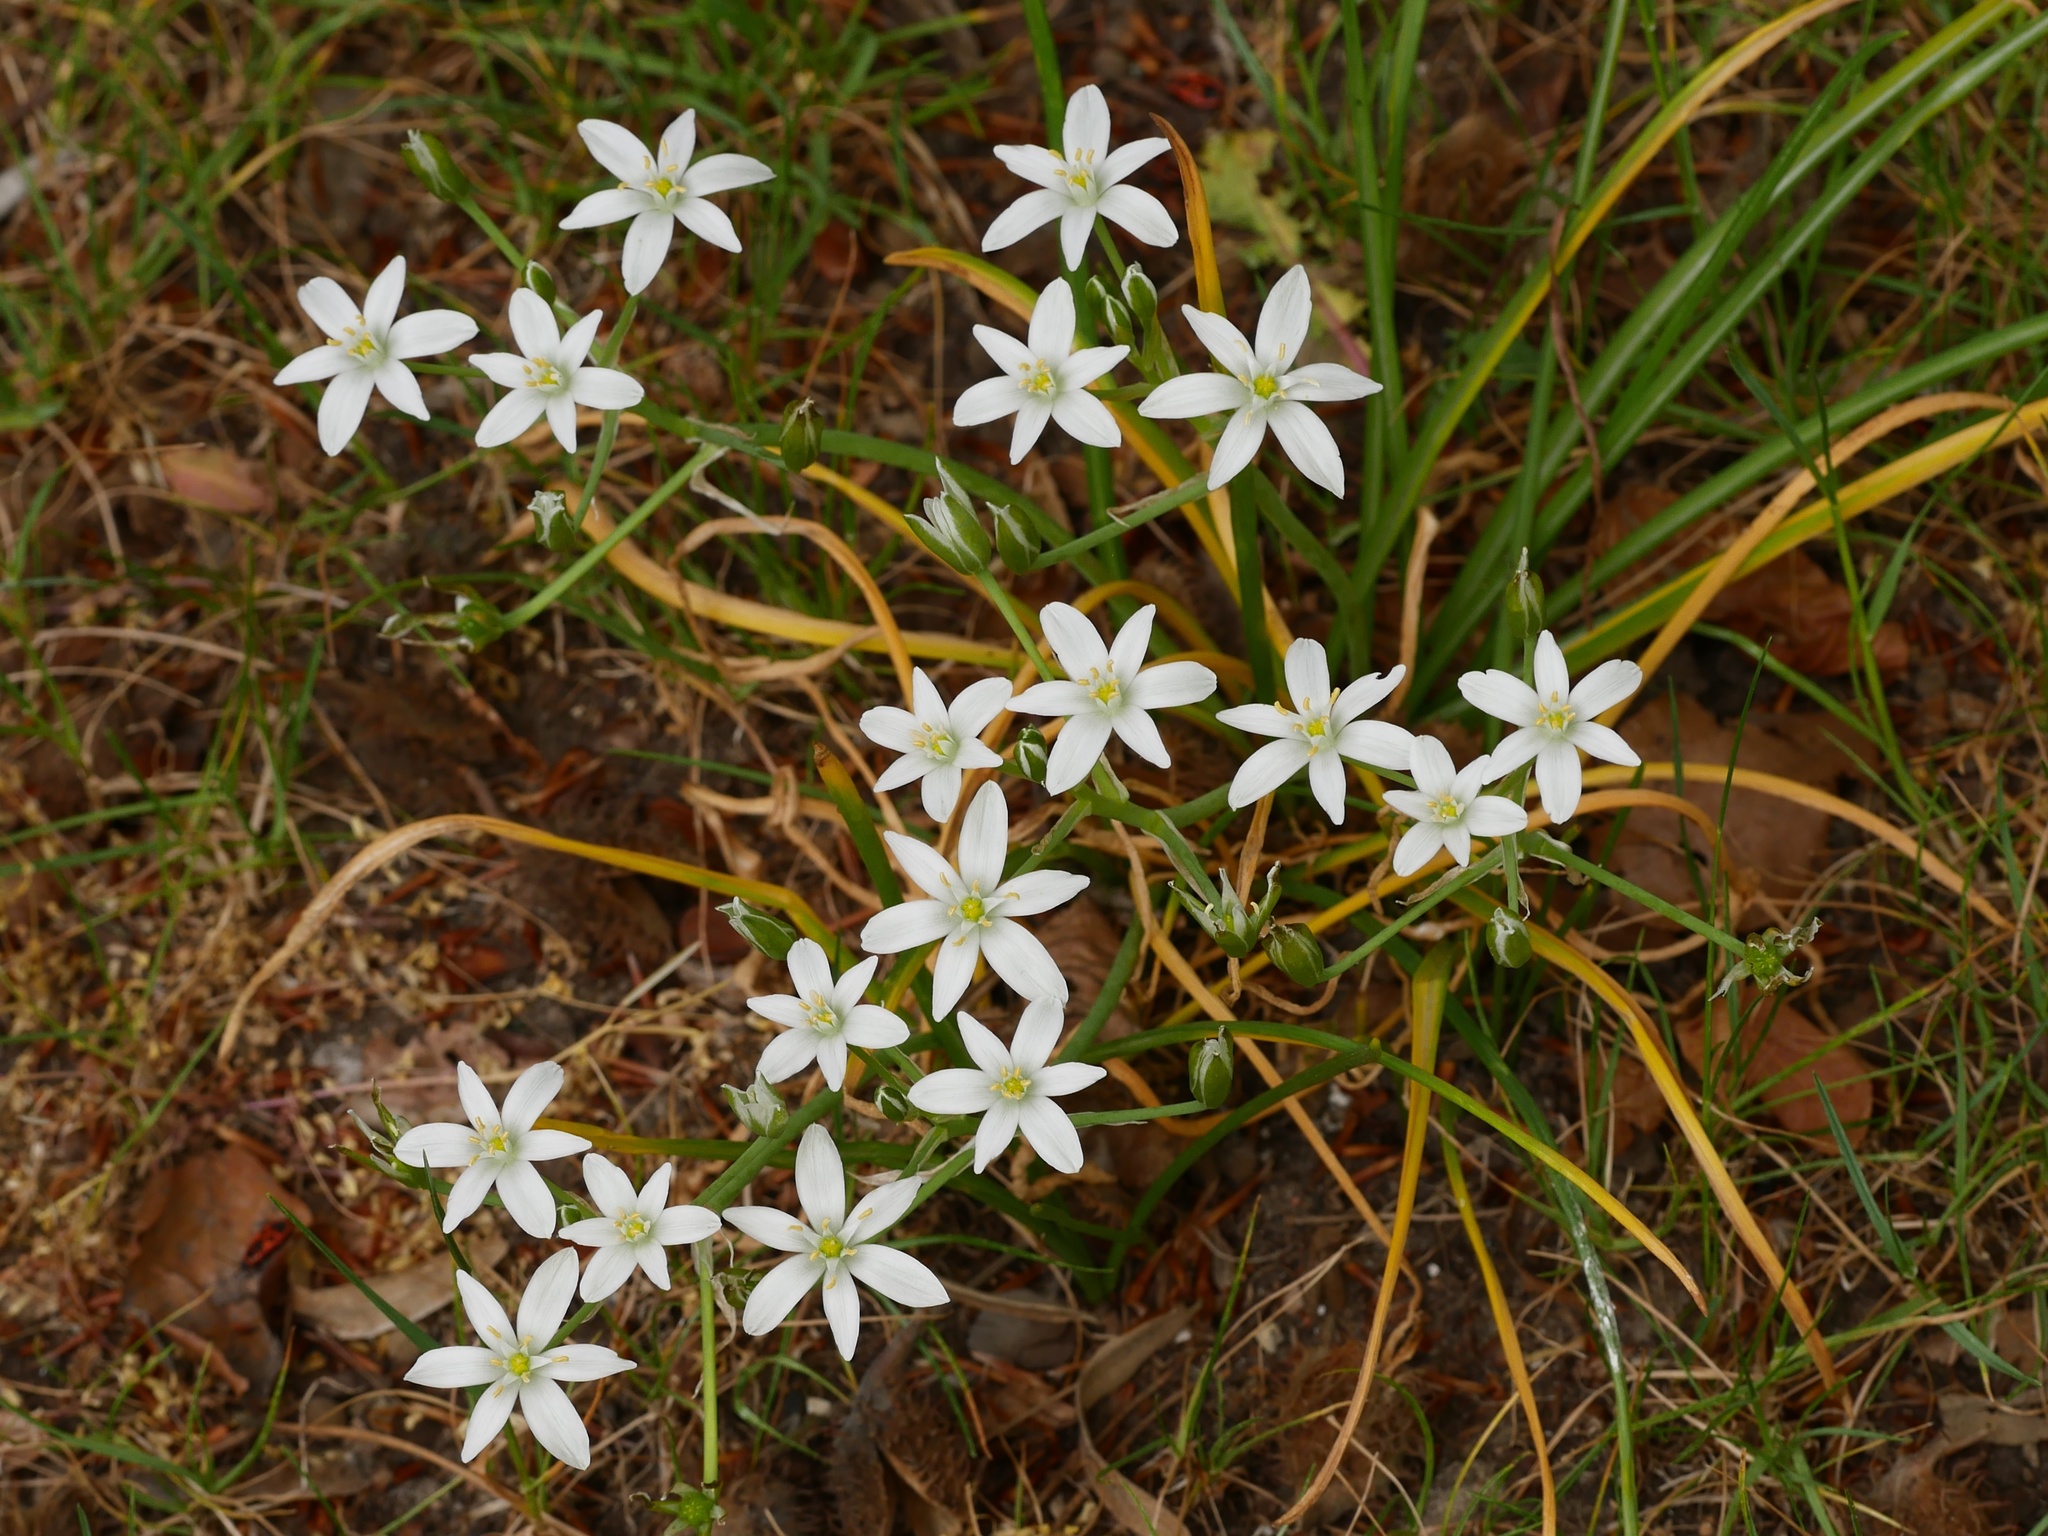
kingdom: Plantae
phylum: Tracheophyta
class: Liliopsida
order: Asparagales
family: Asparagaceae
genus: Ornithogalum
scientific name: Ornithogalum umbellatum
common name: Garden star-of-bethlehem
